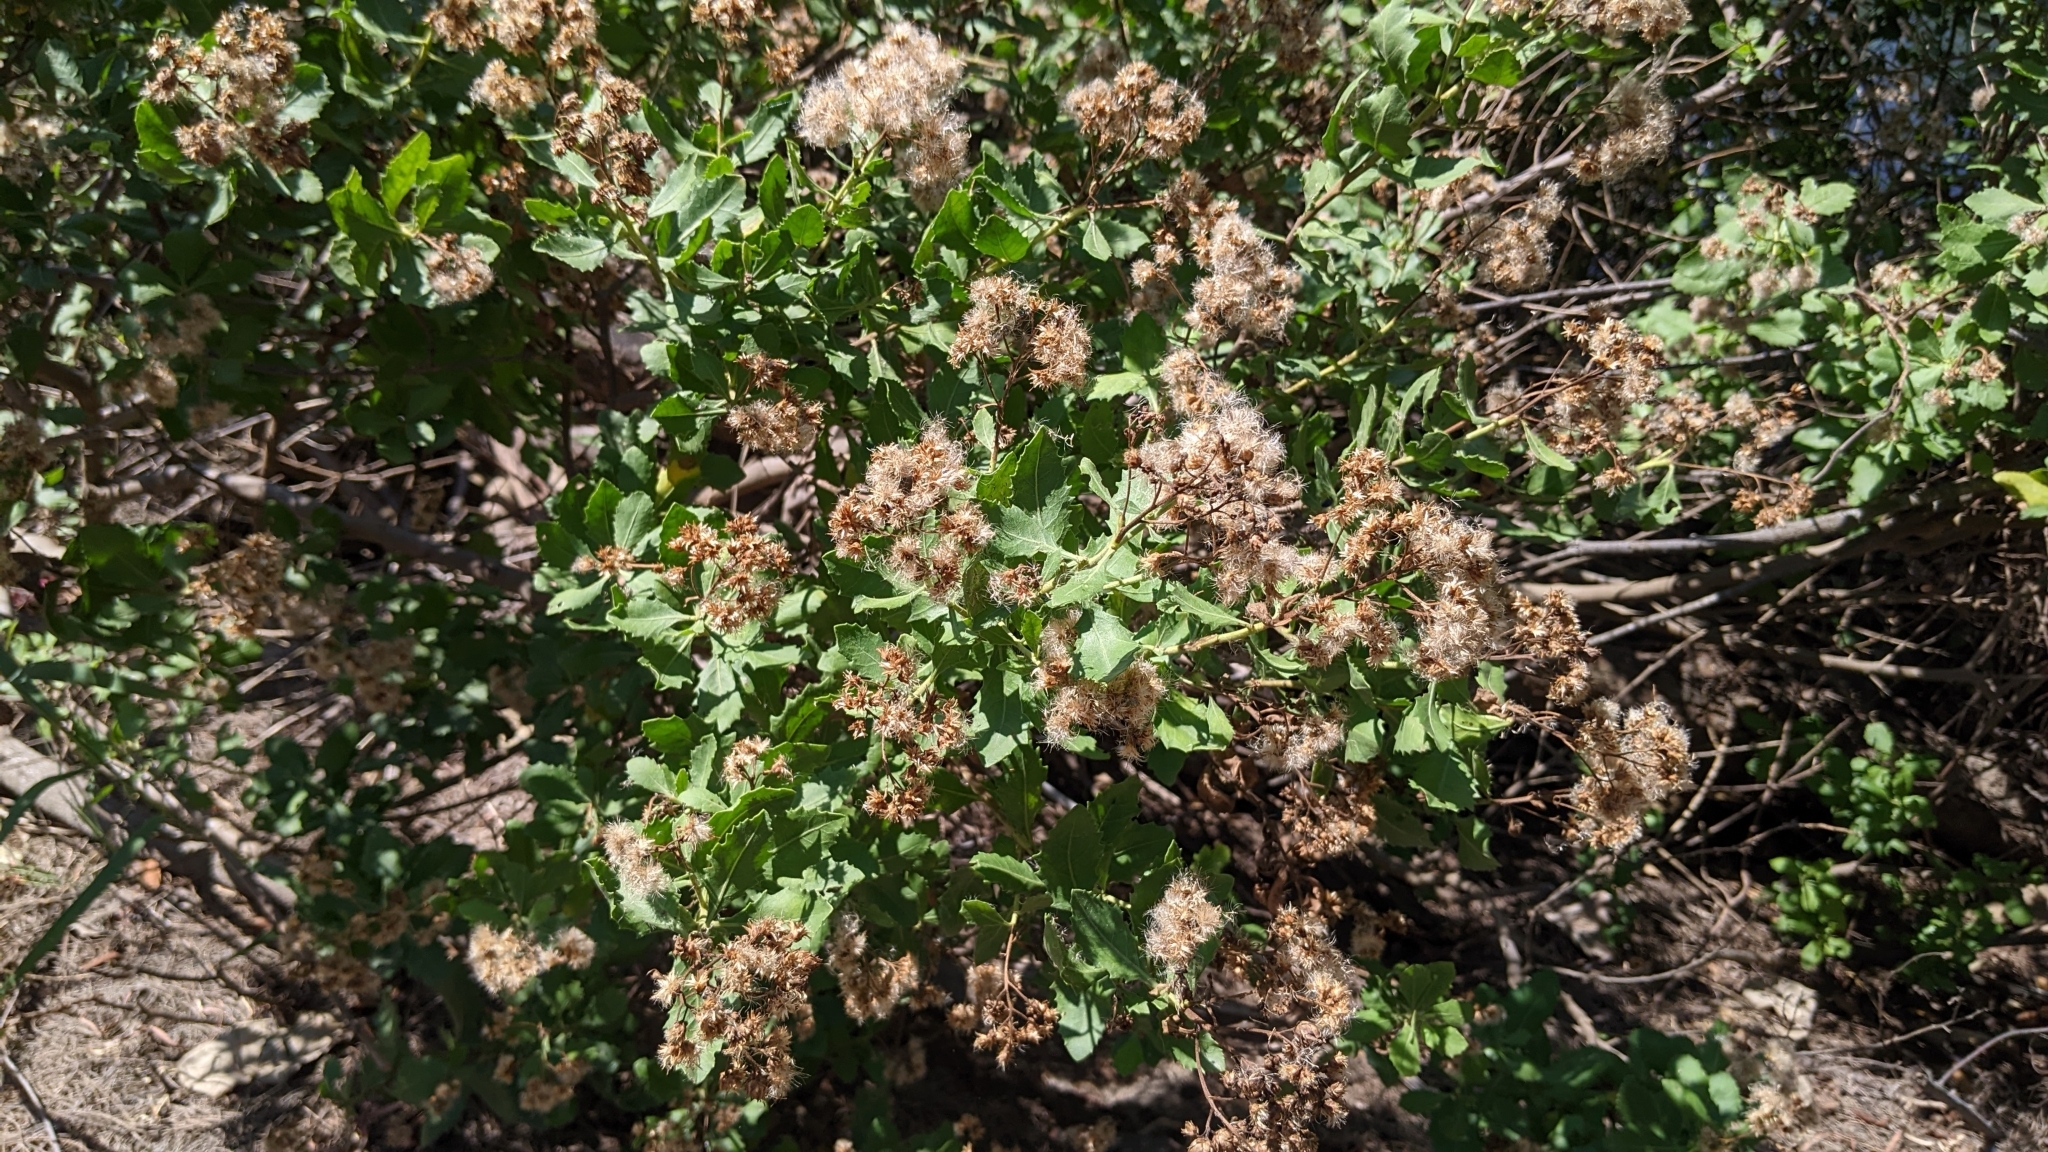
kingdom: Plantae
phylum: Tracheophyta
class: Magnoliopsida
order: Asterales
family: Asteraceae
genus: Pluchea
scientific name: Pluchea indica
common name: Indian fleabane
